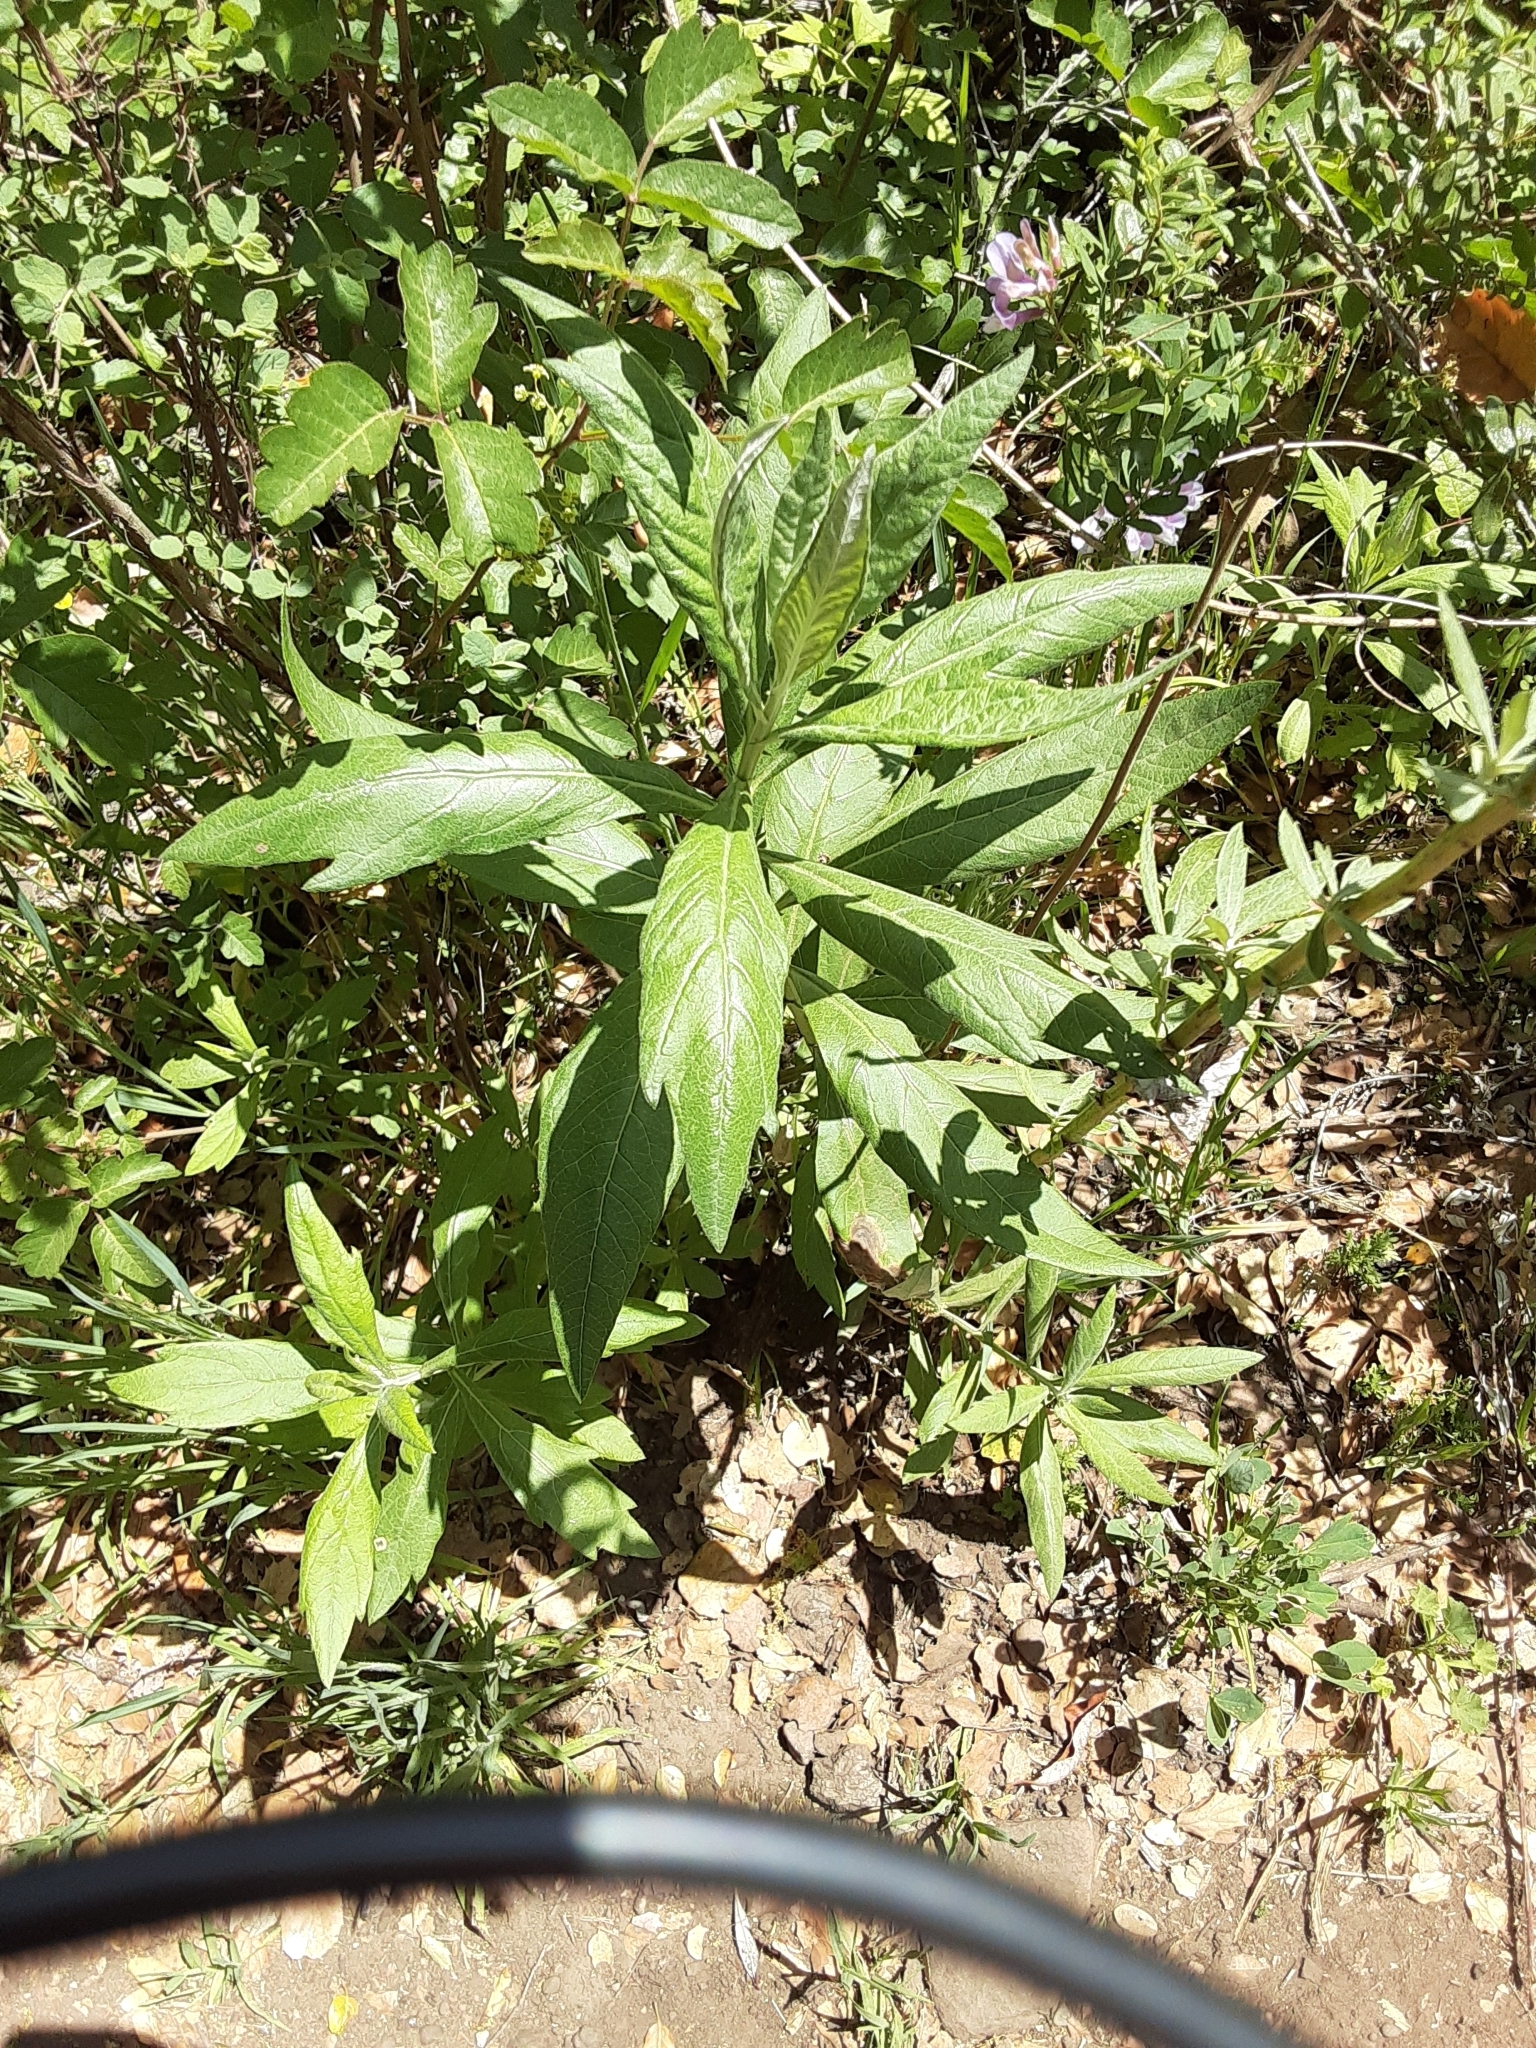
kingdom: Plantae
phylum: Tracheophyta
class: Magnoliopsida
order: Asterales
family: Asteraceae
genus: Artemisia
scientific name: Artemisia douglasiana
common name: Northwest mugwort
